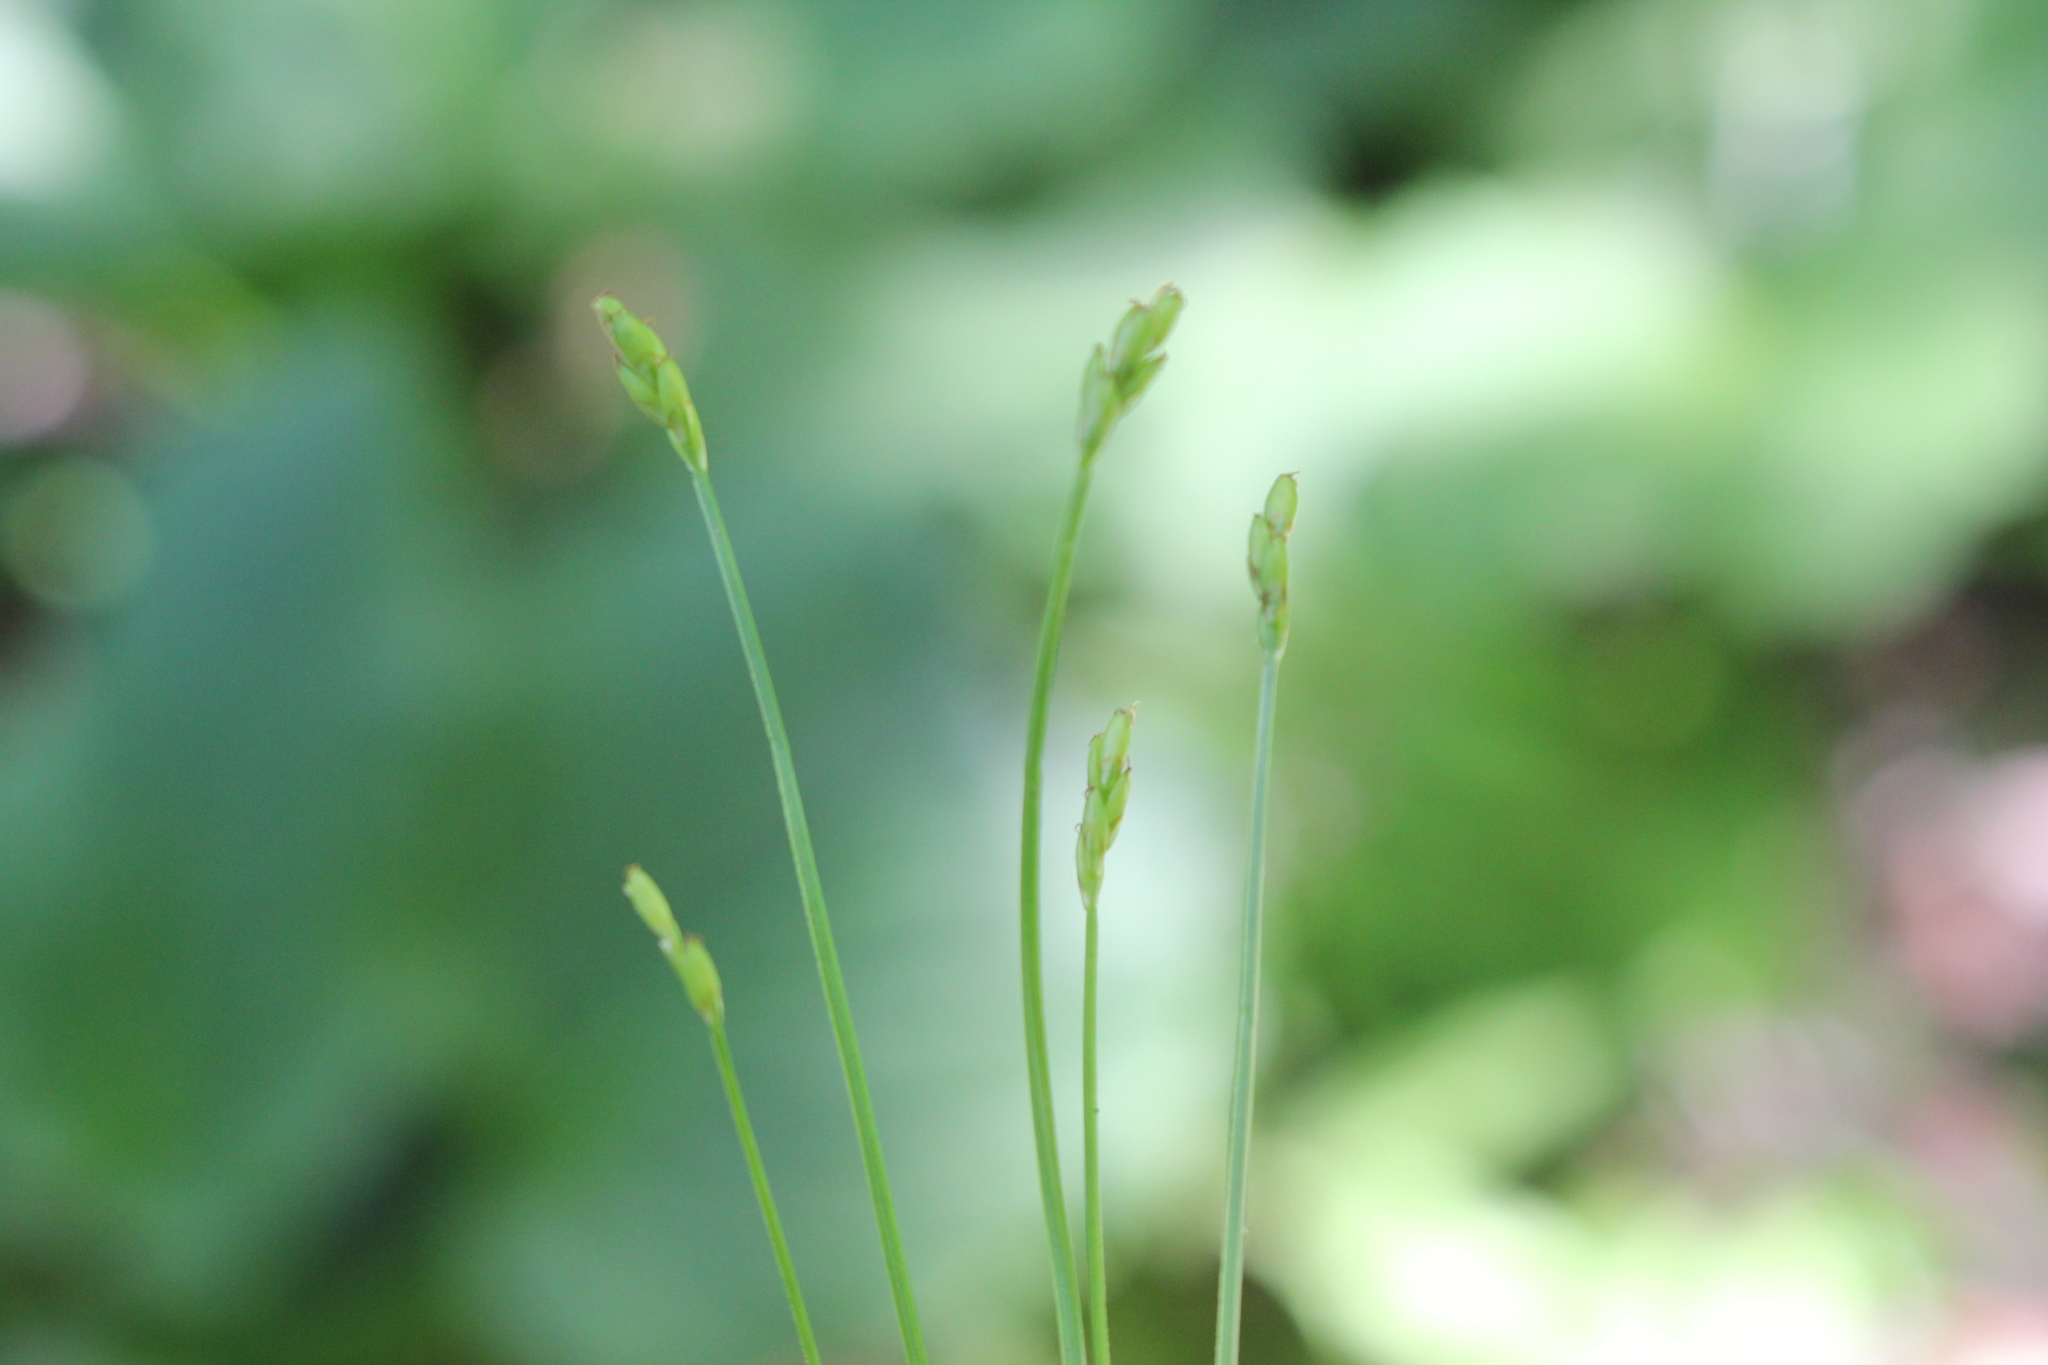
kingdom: Plantae
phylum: Tracheophyta
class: Liliopsida
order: Poales
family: Cyperaceae
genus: Carex
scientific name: Carex leptalea
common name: Bristly-stalked sedge
